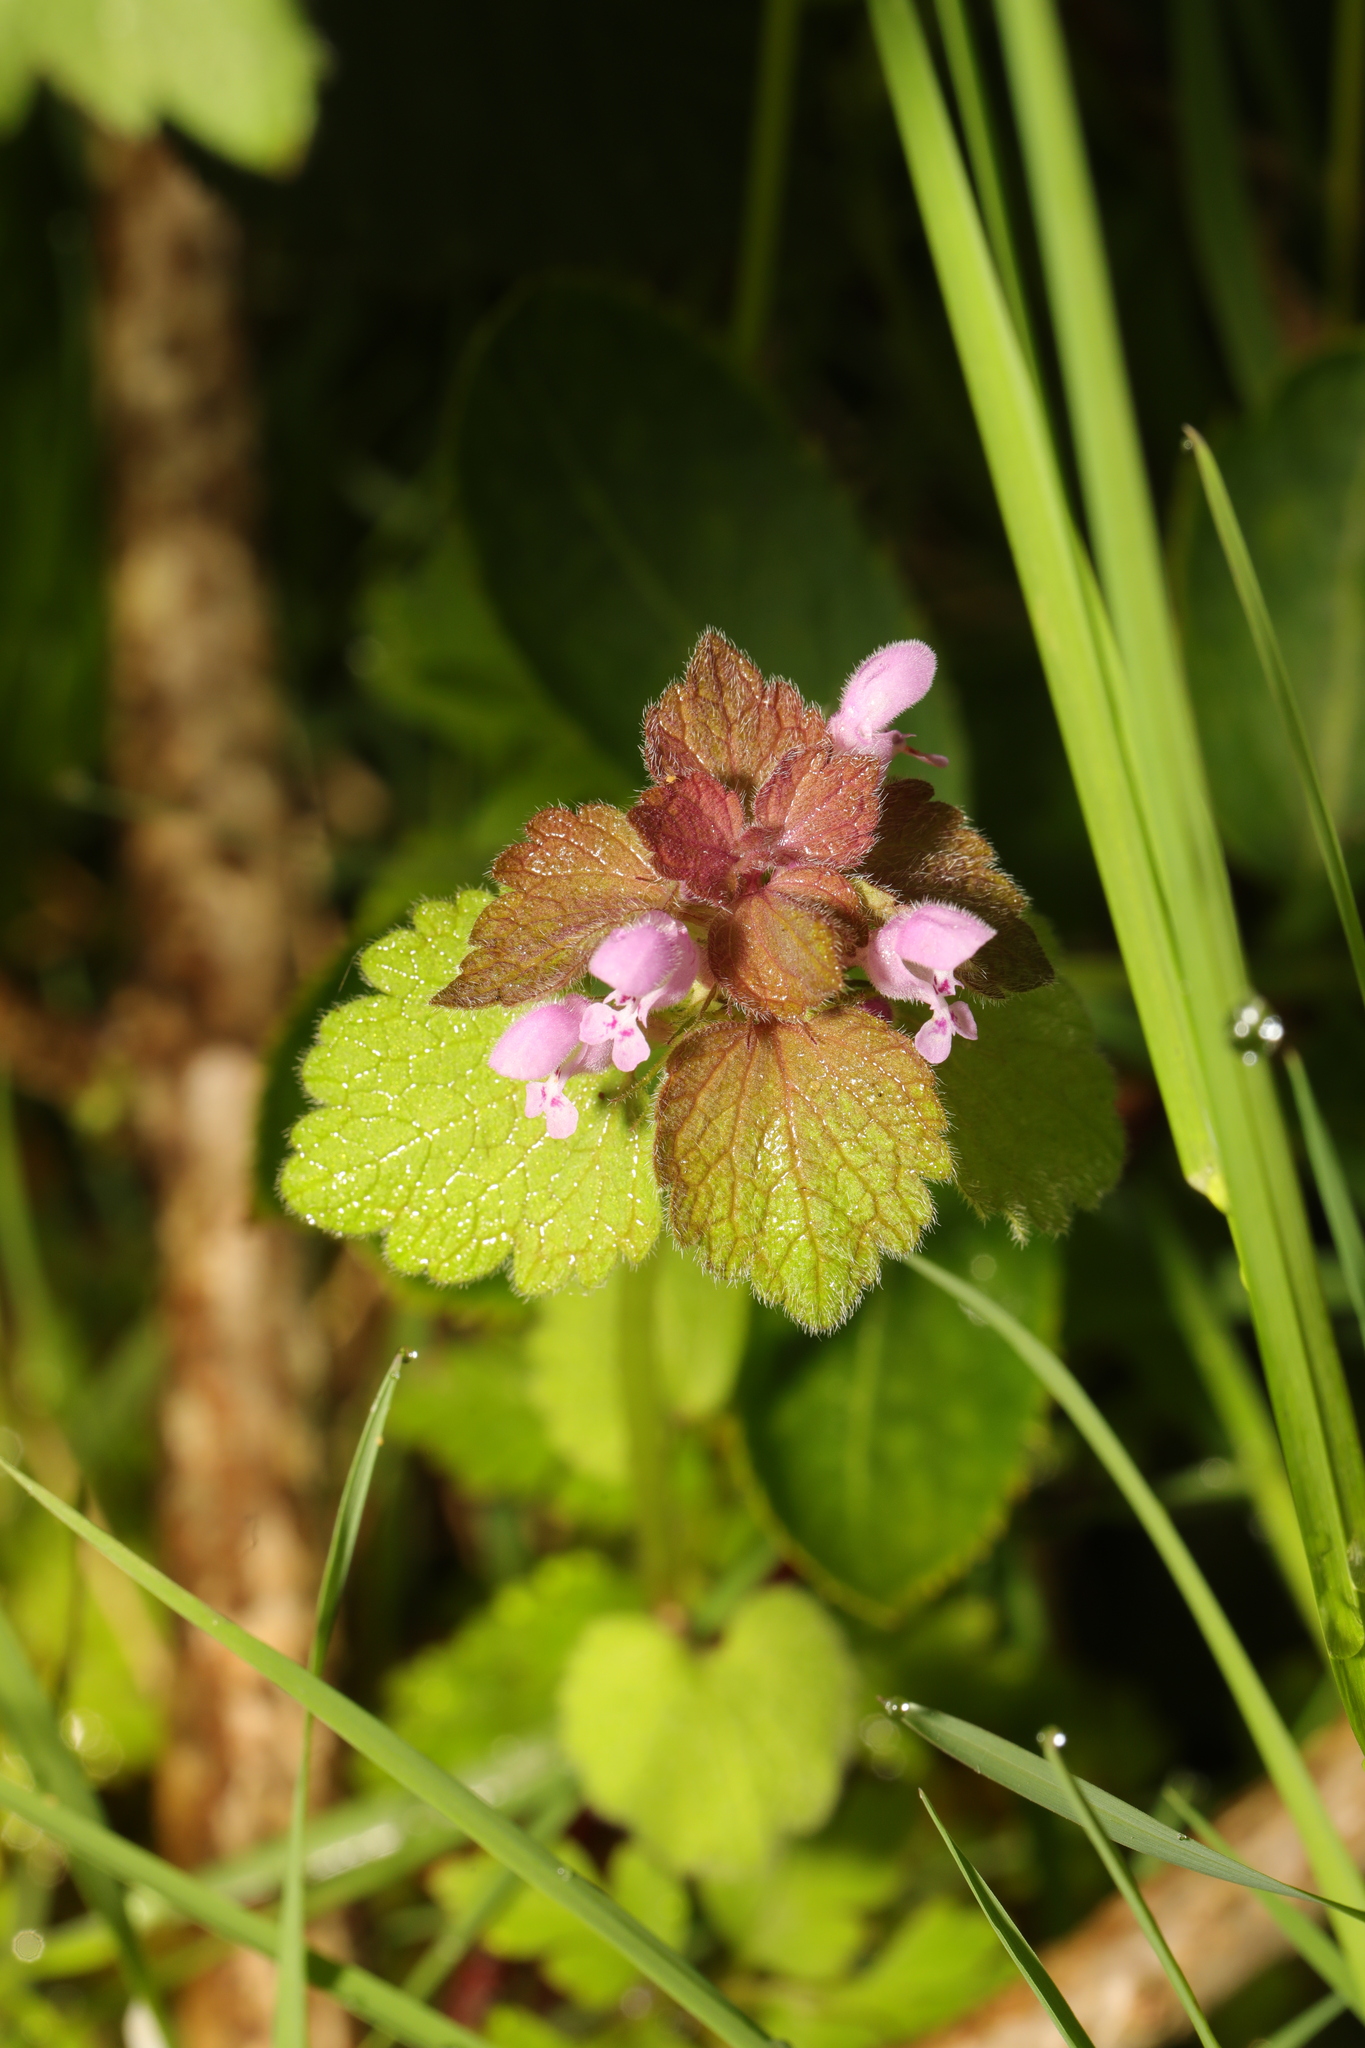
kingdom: Plantae
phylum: Tracheophyta
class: Magnoliopsida
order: Lamiales
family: Lamiaceae
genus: Lamium
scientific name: Lamium purpureum
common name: Red dead-nettle
